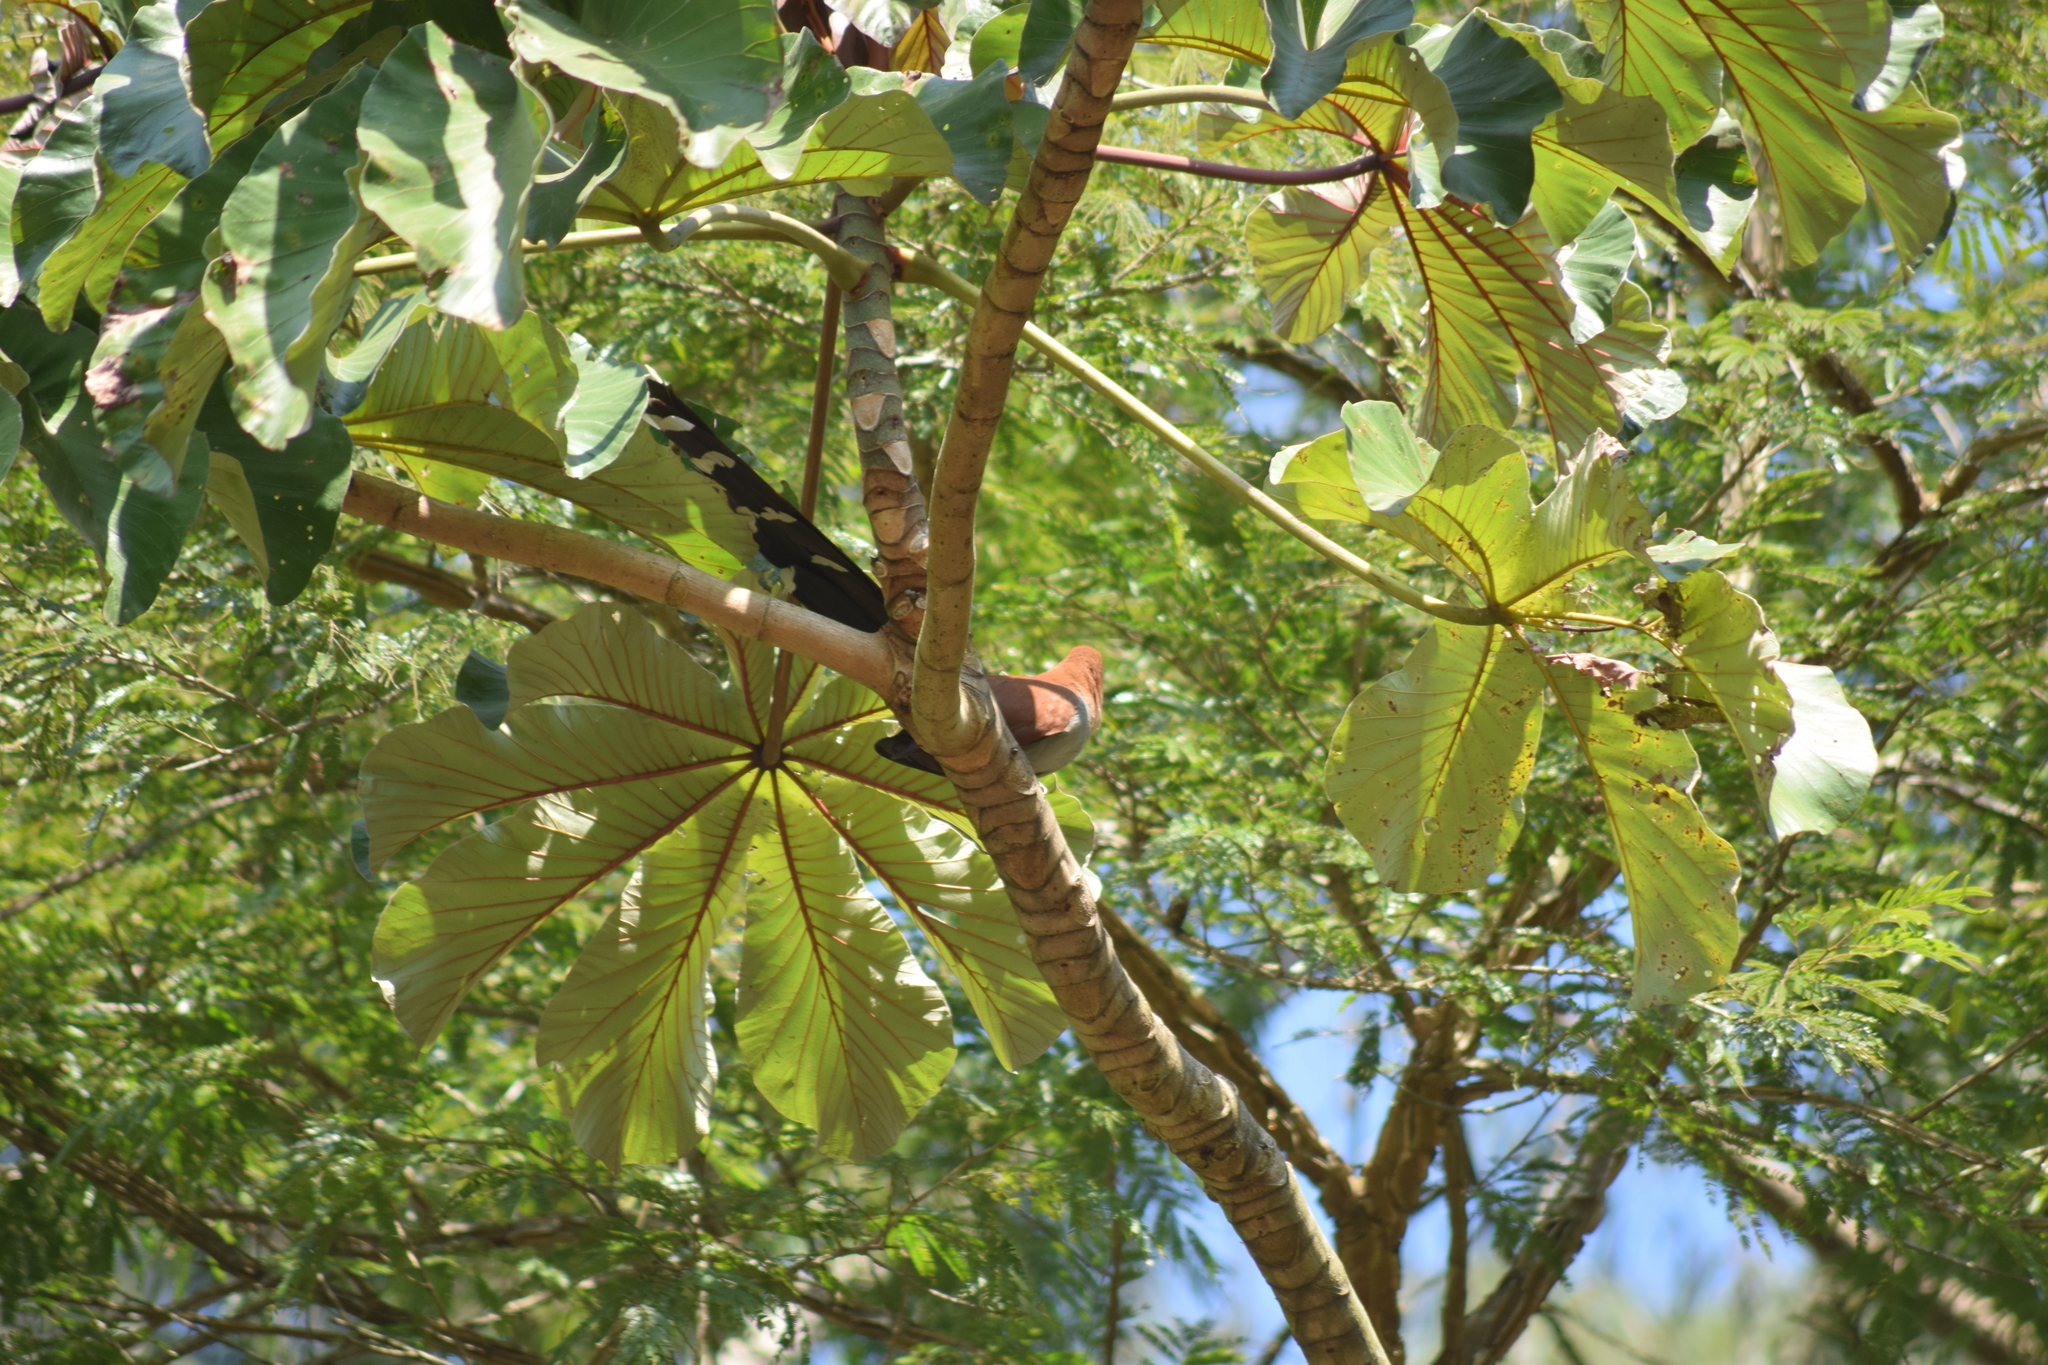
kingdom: Plantae
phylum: Tracheophyta
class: Magnoliopsida
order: Rosales
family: Urticaceae
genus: Cecropia
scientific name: Cecropia glaziovii
